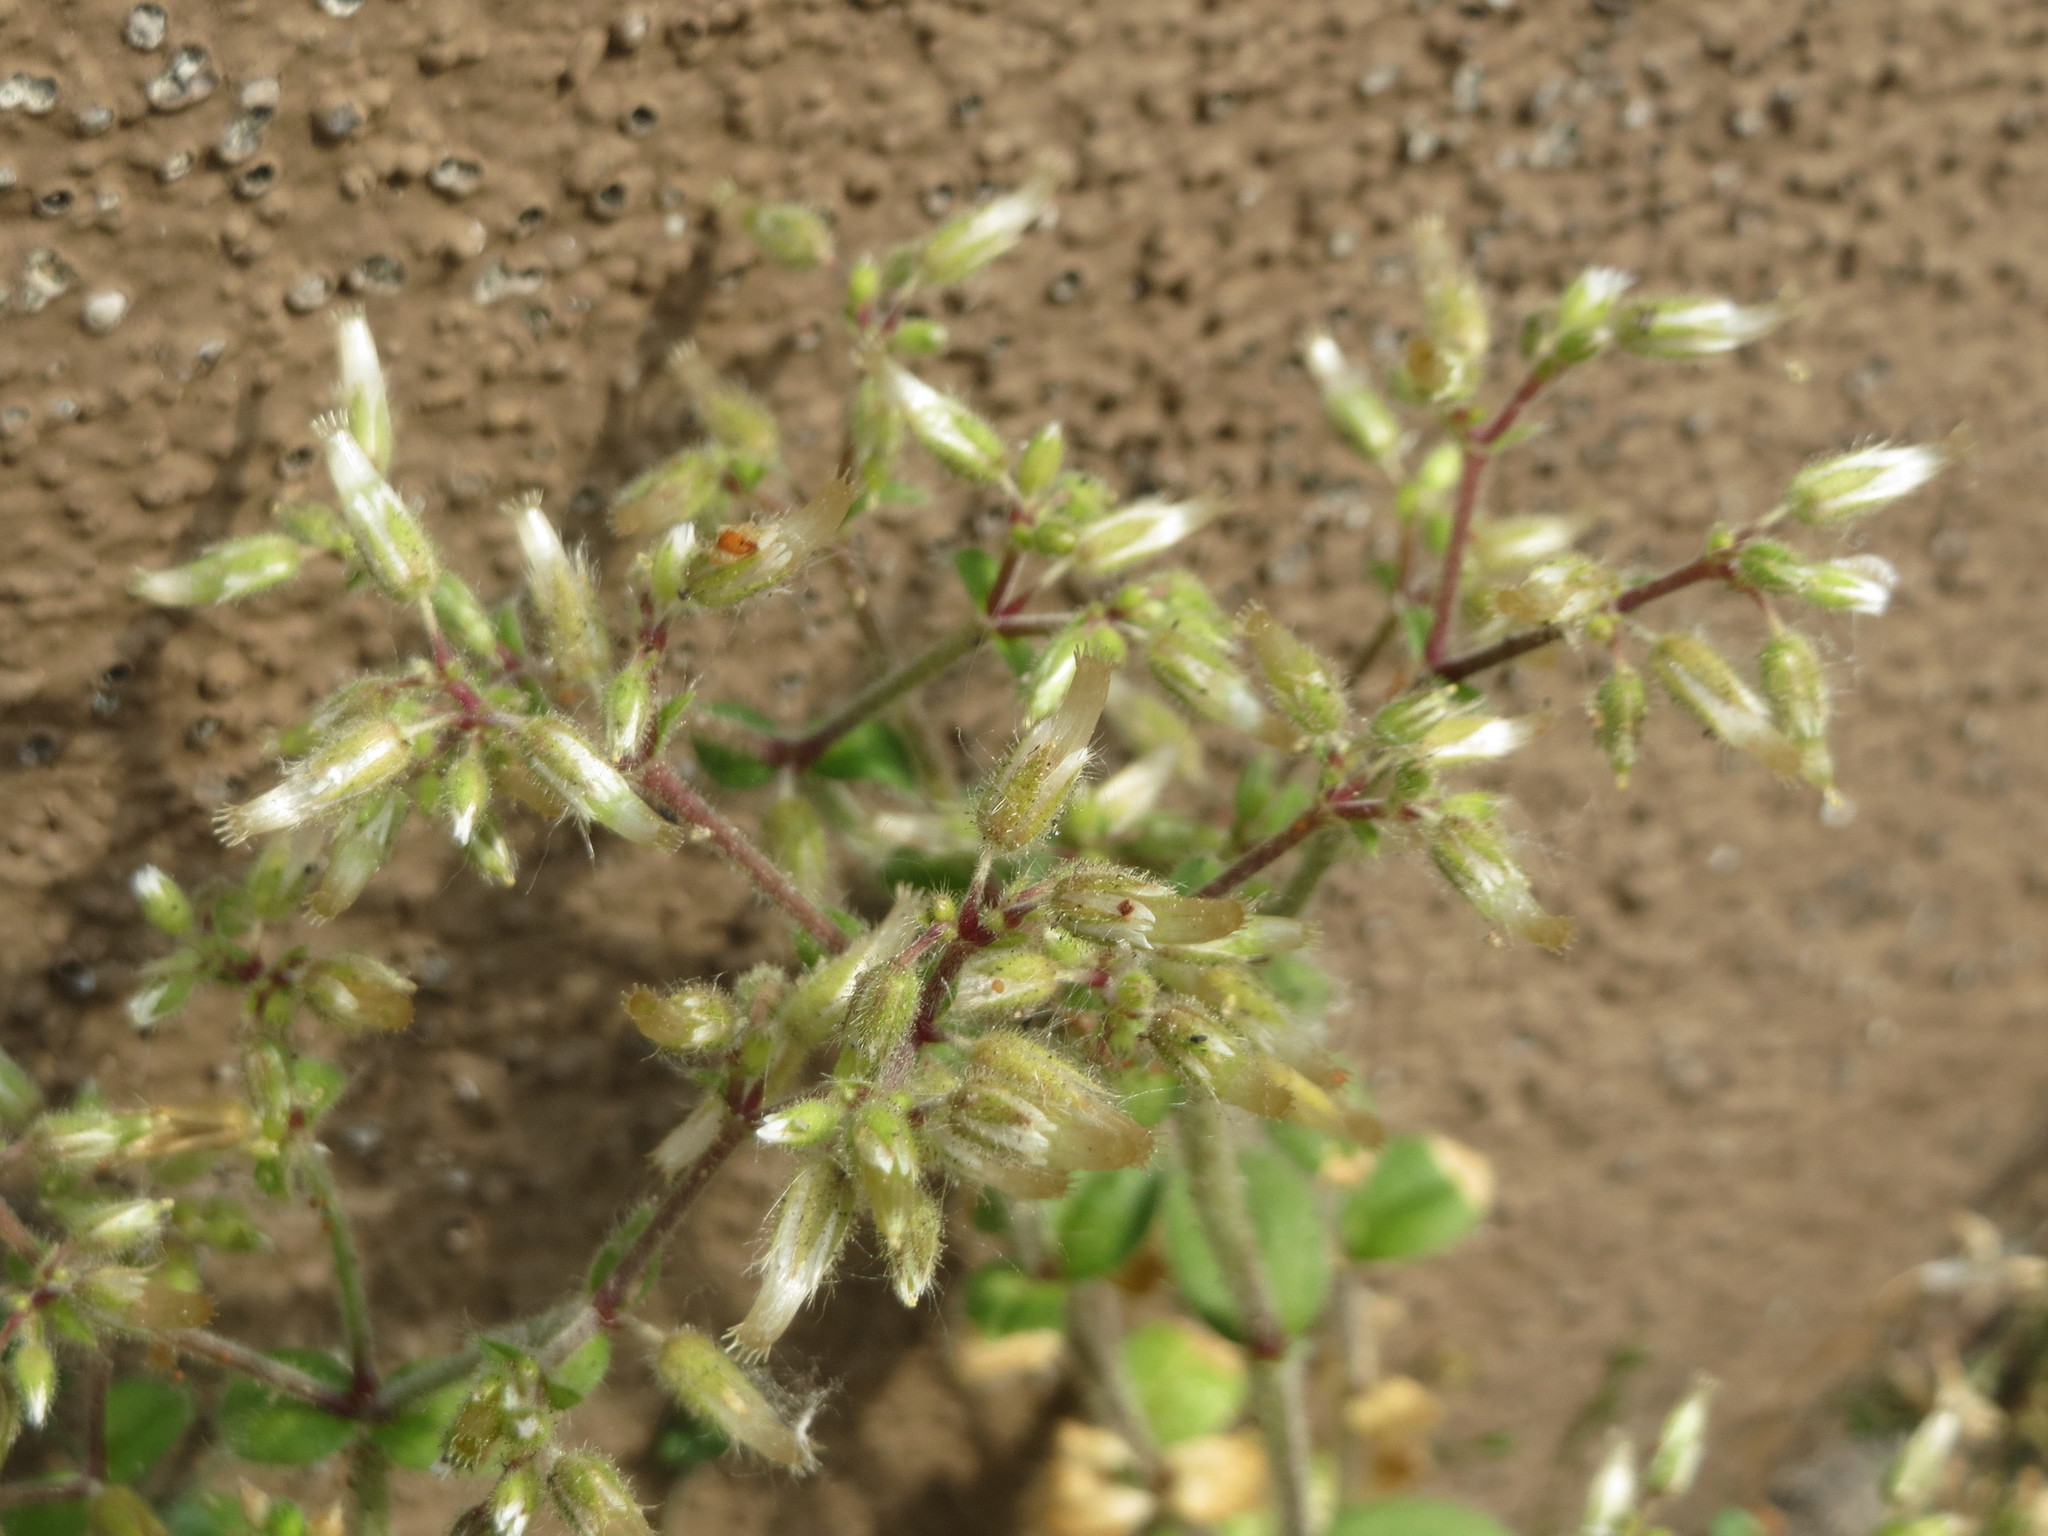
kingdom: Plantae
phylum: Tracheophyta
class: Magnoliopsida
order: Caryophyllales
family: Caryophyllaceae
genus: Cerastium
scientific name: Cerastium semidecandrum
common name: Little mouse-ear
